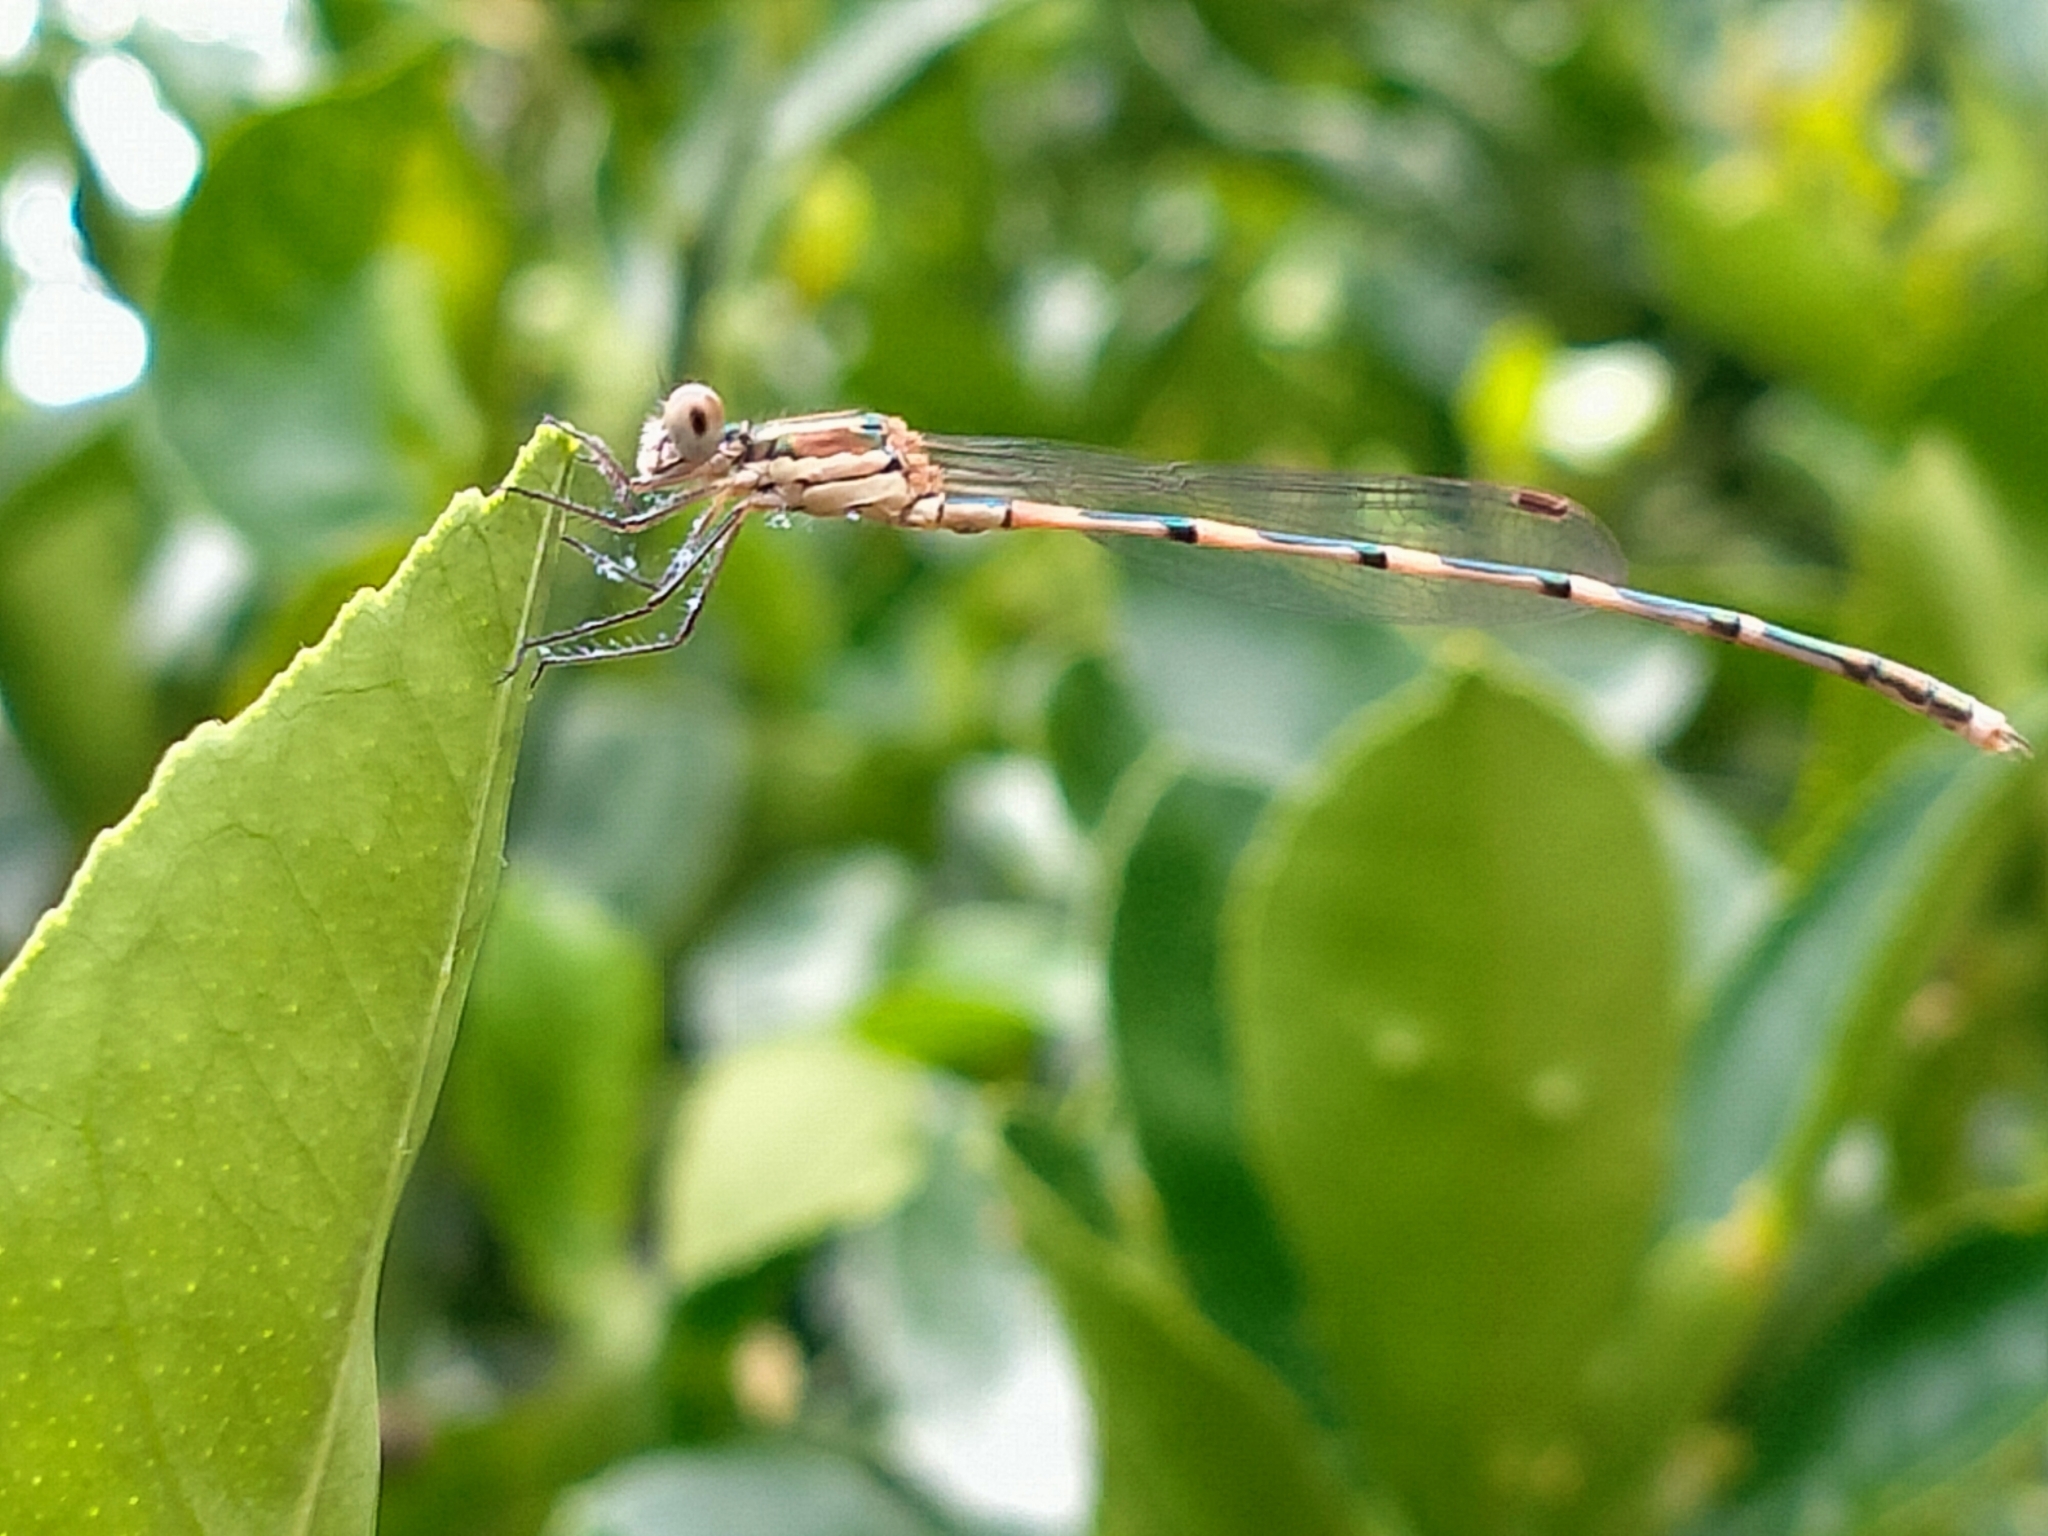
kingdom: Animalia
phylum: Arthropoda
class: Insecta
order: Odonata
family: Lestidae
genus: Austrolestes
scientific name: Austrolestes leda
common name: Wandering ringtail
